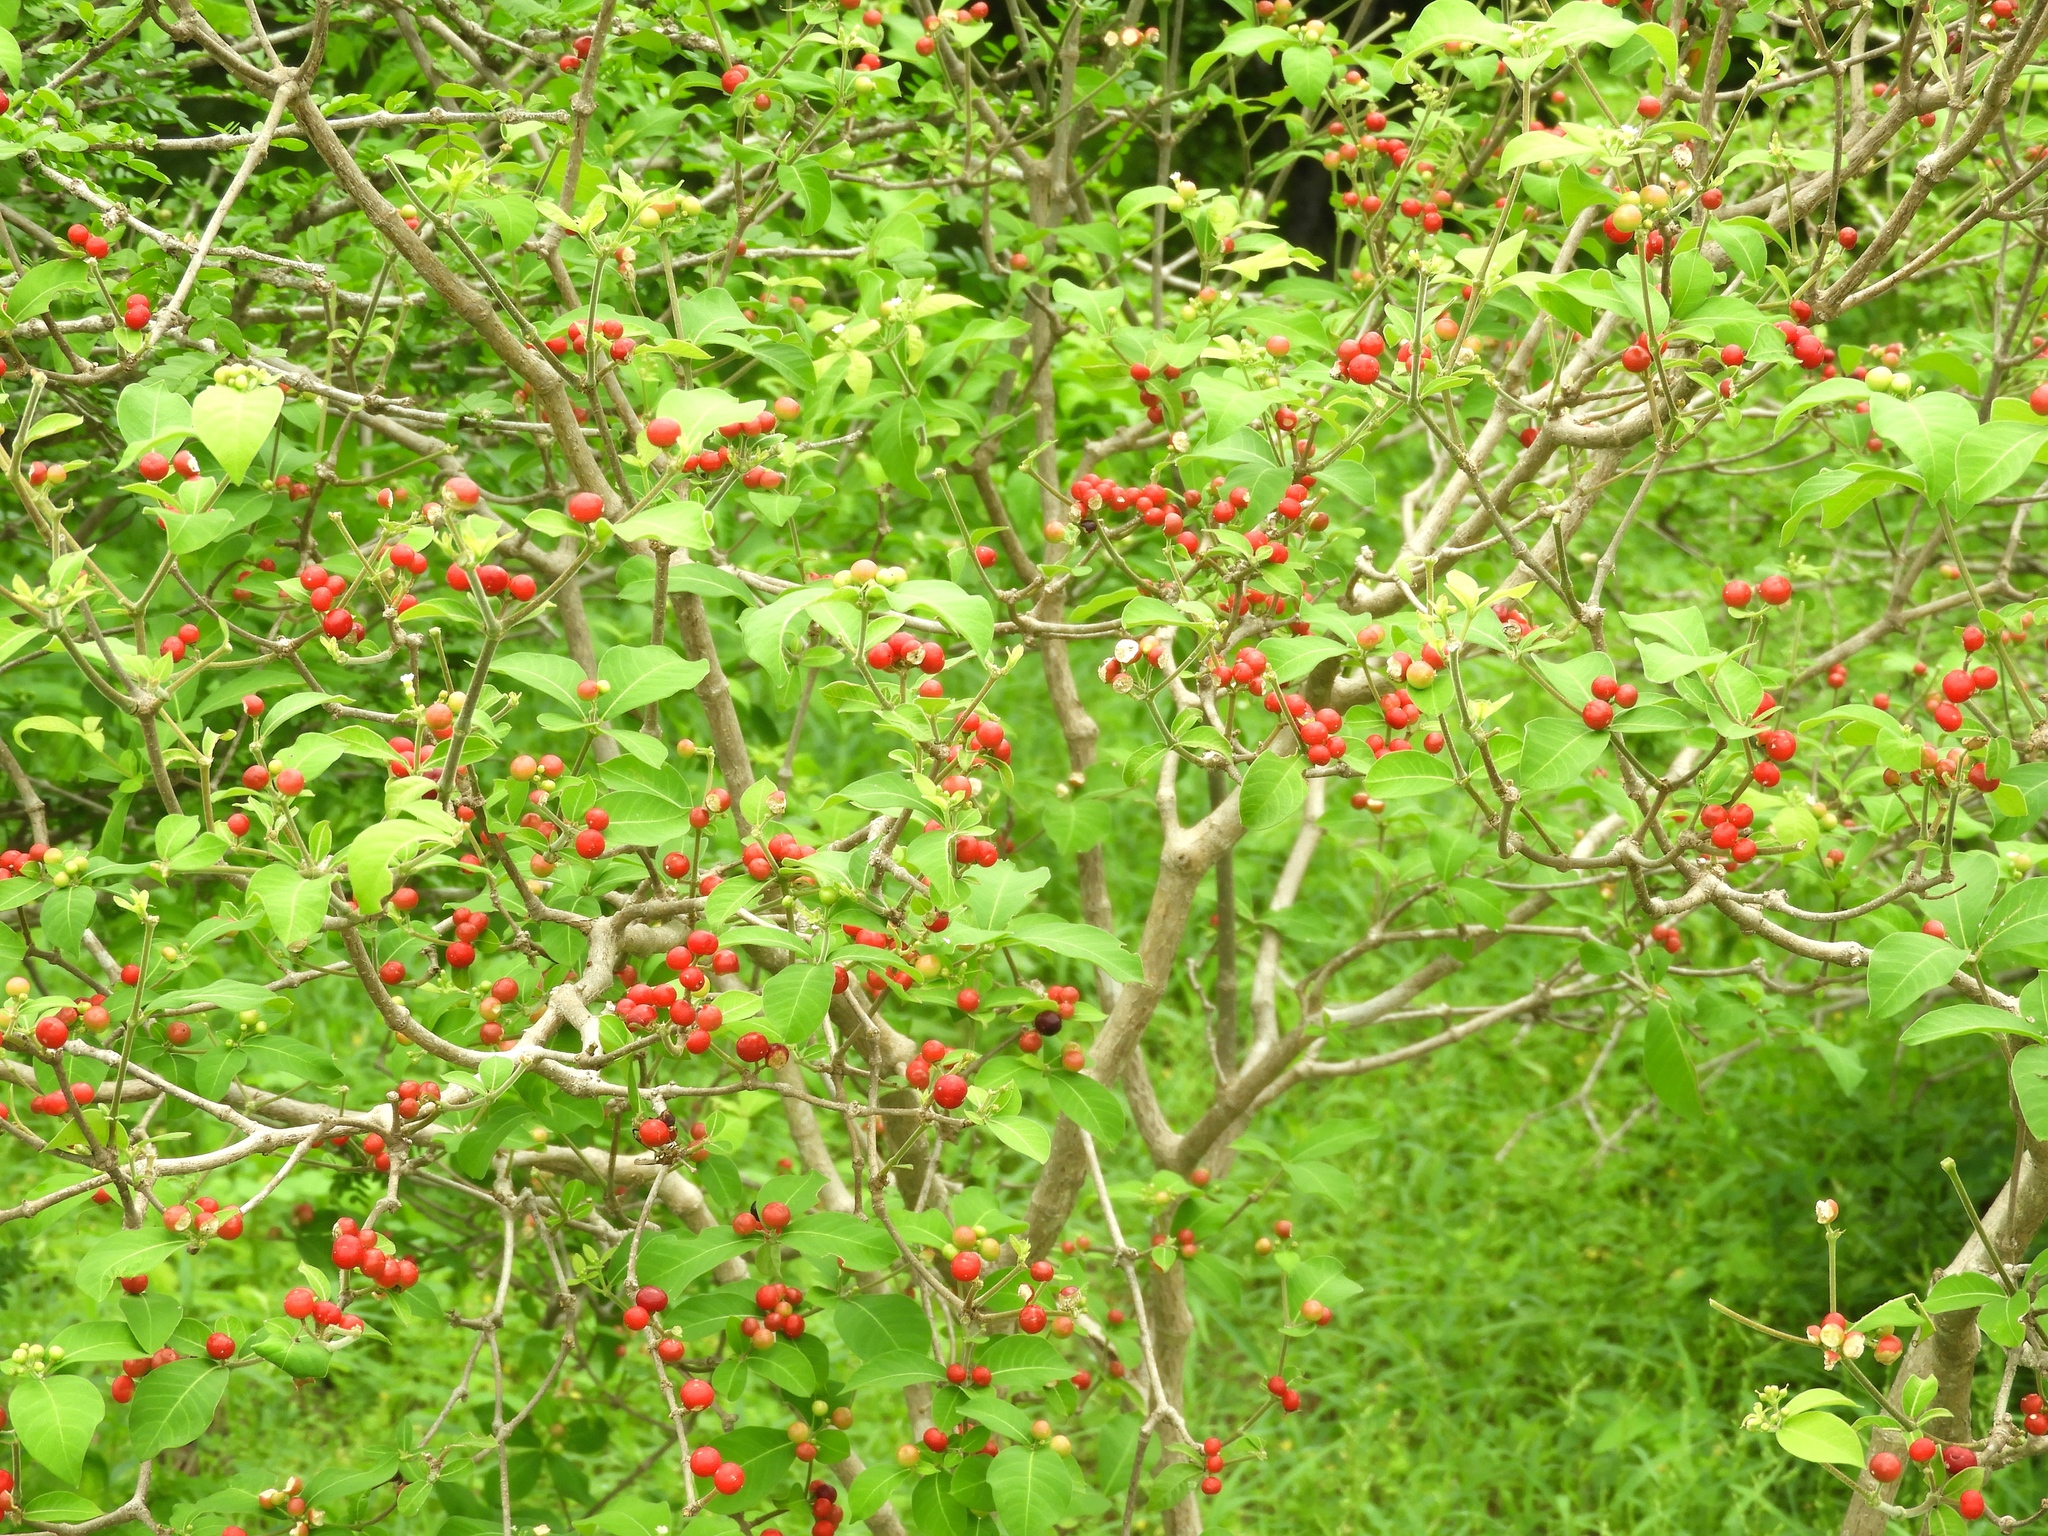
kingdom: Plantae
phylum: Tracheophyta
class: Magnoliopsida
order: Gentianales
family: Apocynaceae
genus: Rauvolfia
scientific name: Rauvolfia tetraphylla
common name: Four-leaf devil-pepper
